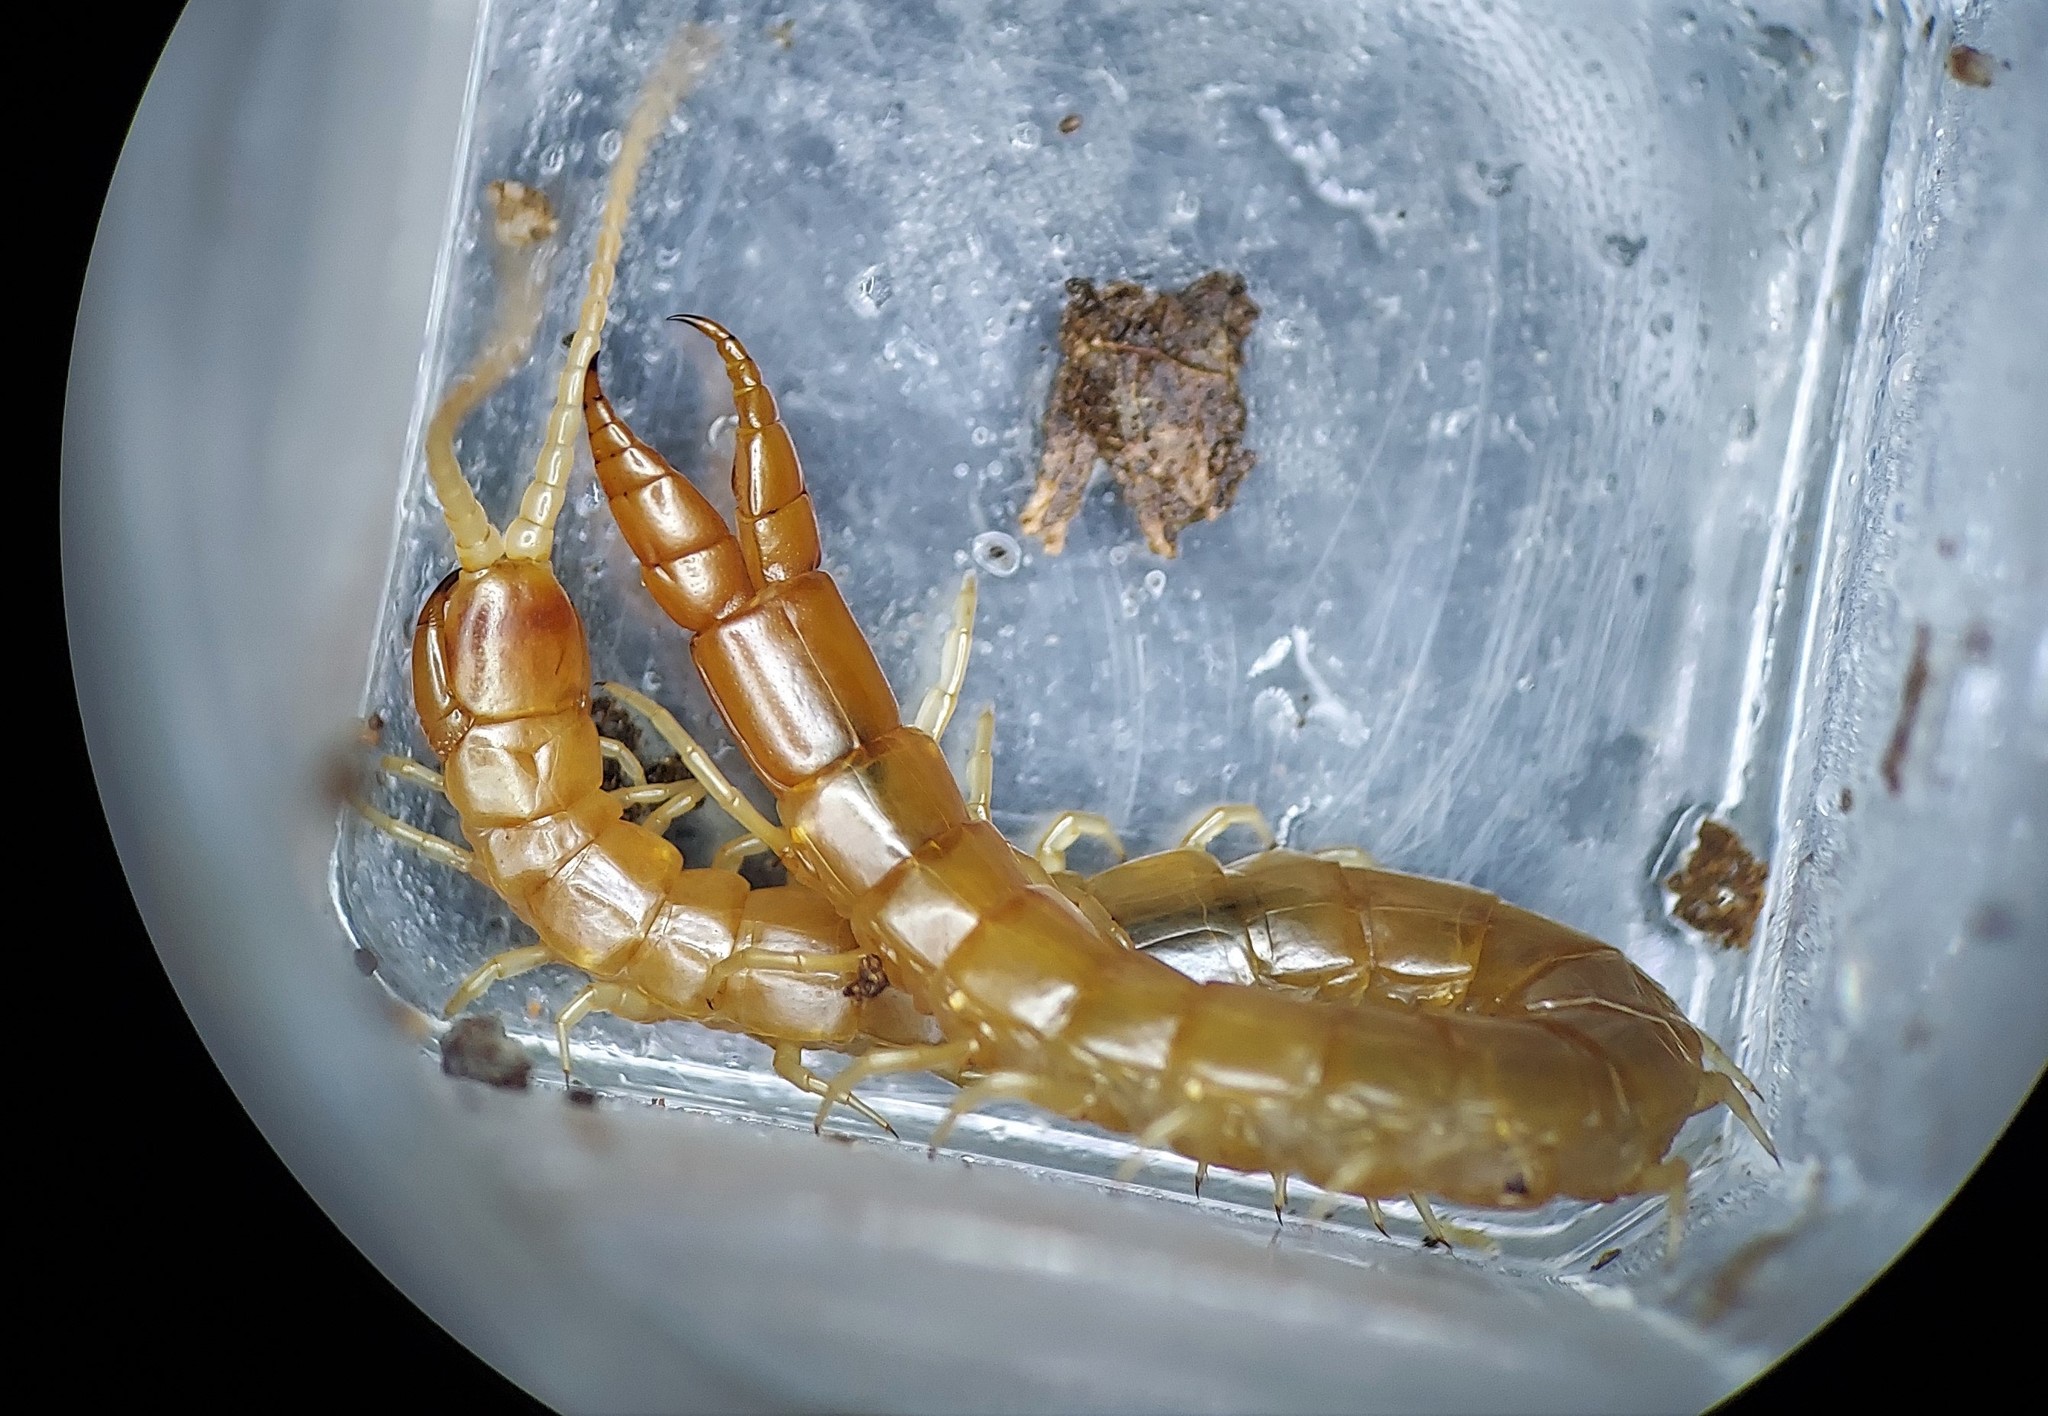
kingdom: Animalia
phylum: Arthropoda
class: Chilopoda
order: Scolopendromorpha
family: Cryptopidae
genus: Theatops
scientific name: Theatops posticus
